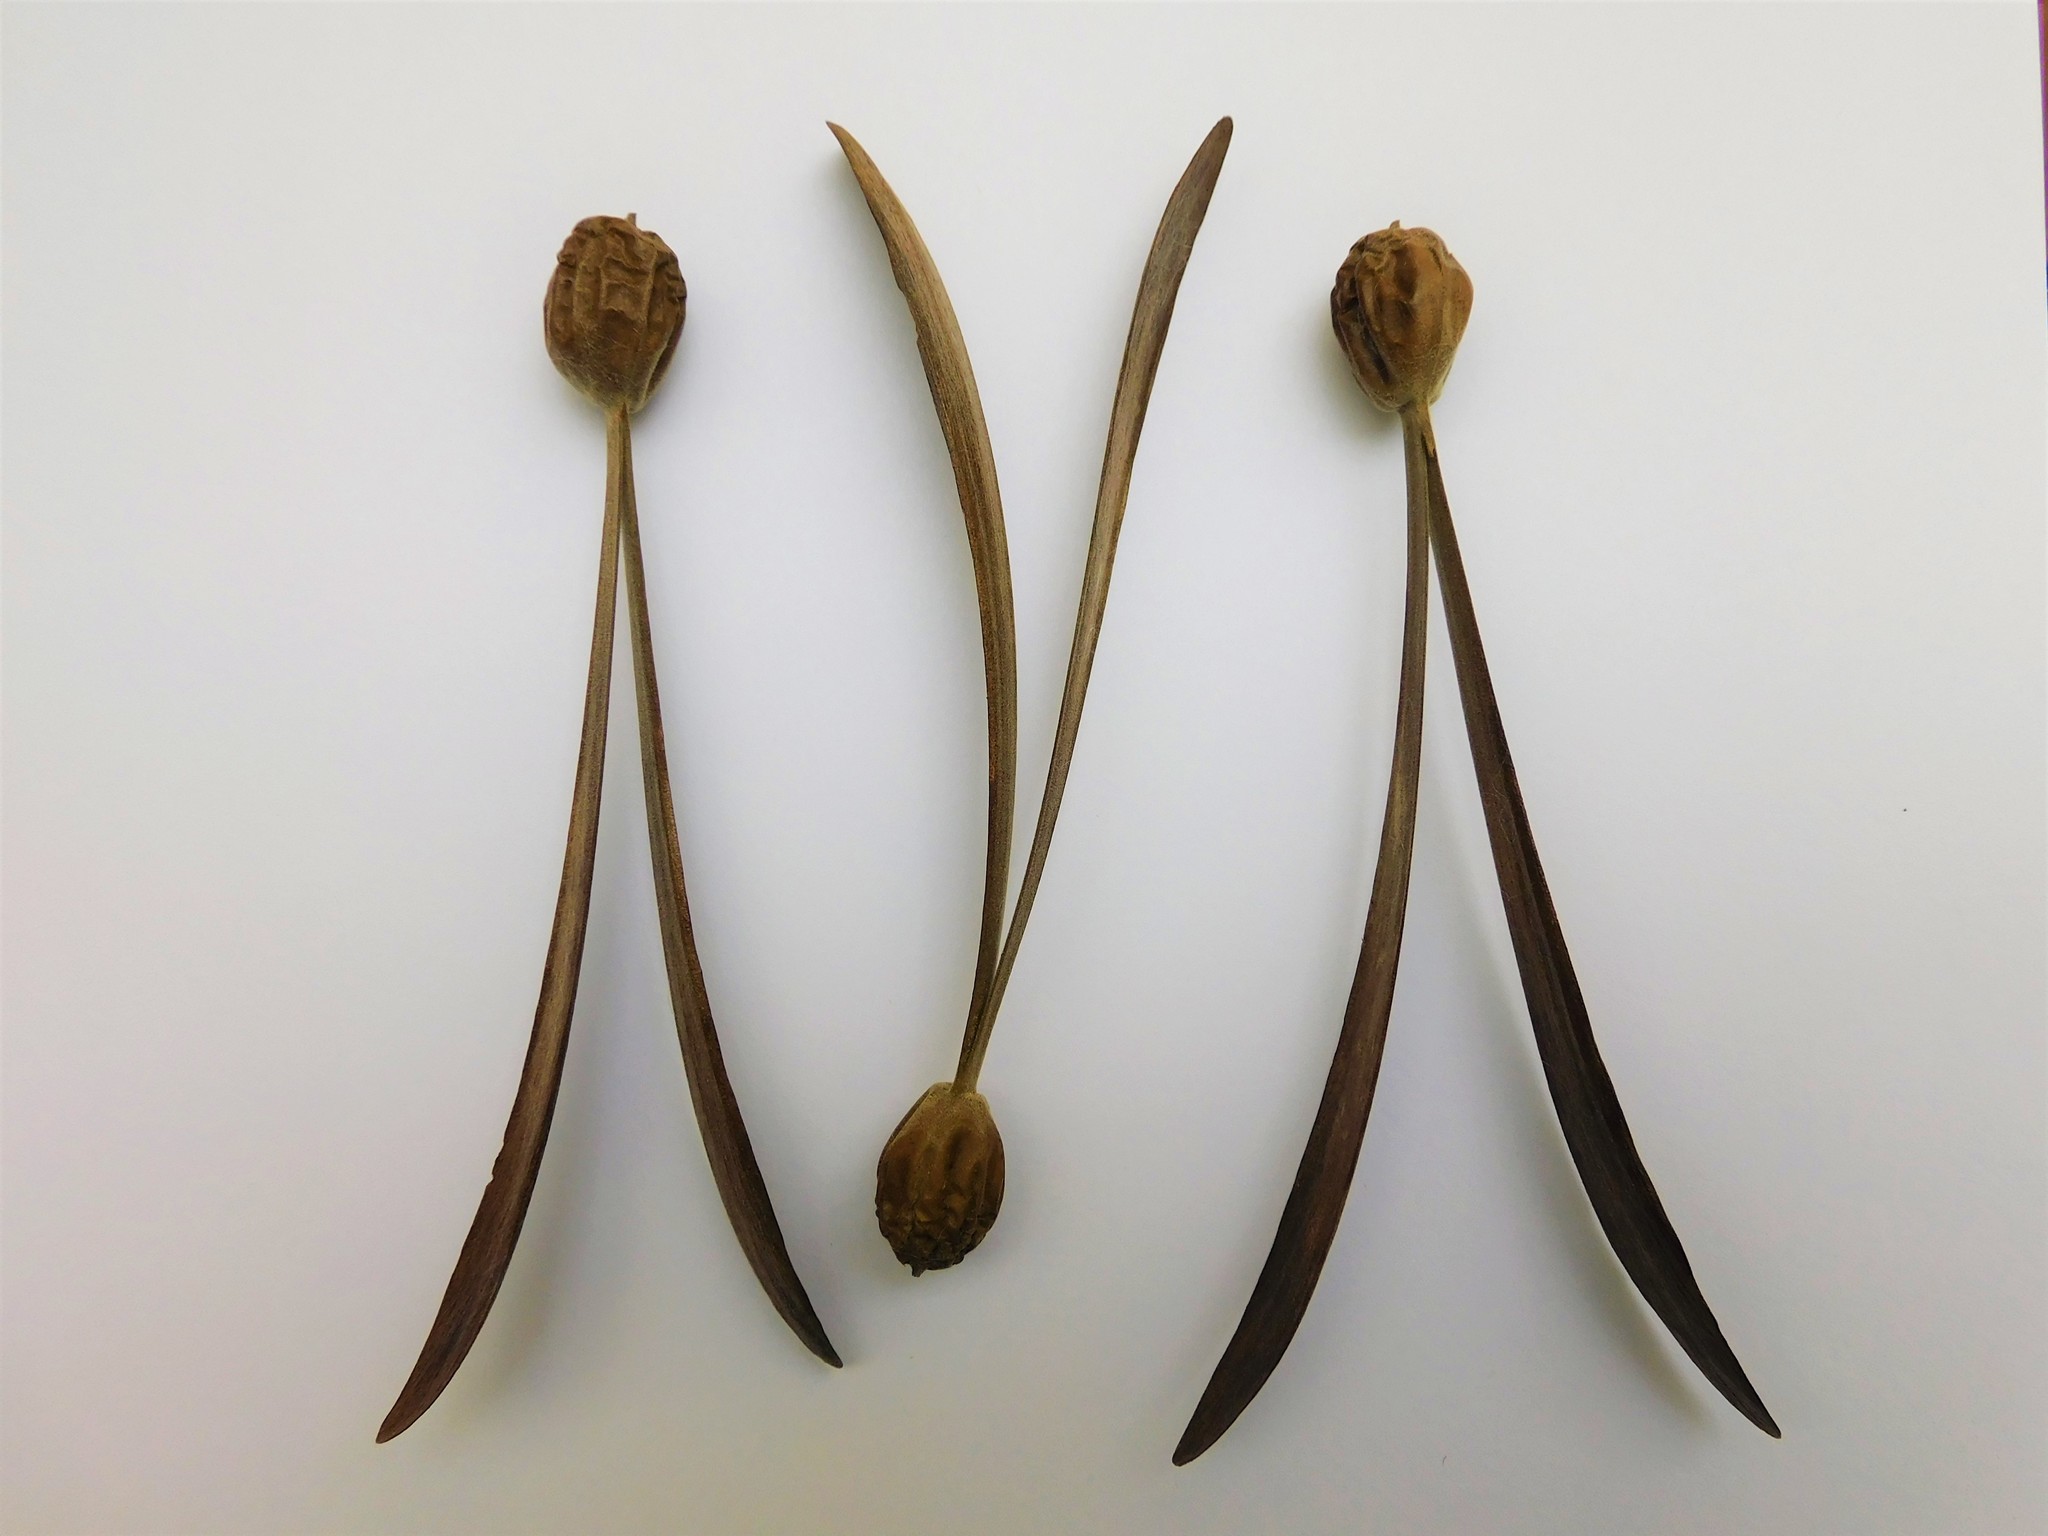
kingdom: Plantae
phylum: Tracheophyta
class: Magnoliopsida
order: Laurales
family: Hernandiaceae
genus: Gyrocarpus
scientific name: Gyrocarpus americanus
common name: Gyro damson
